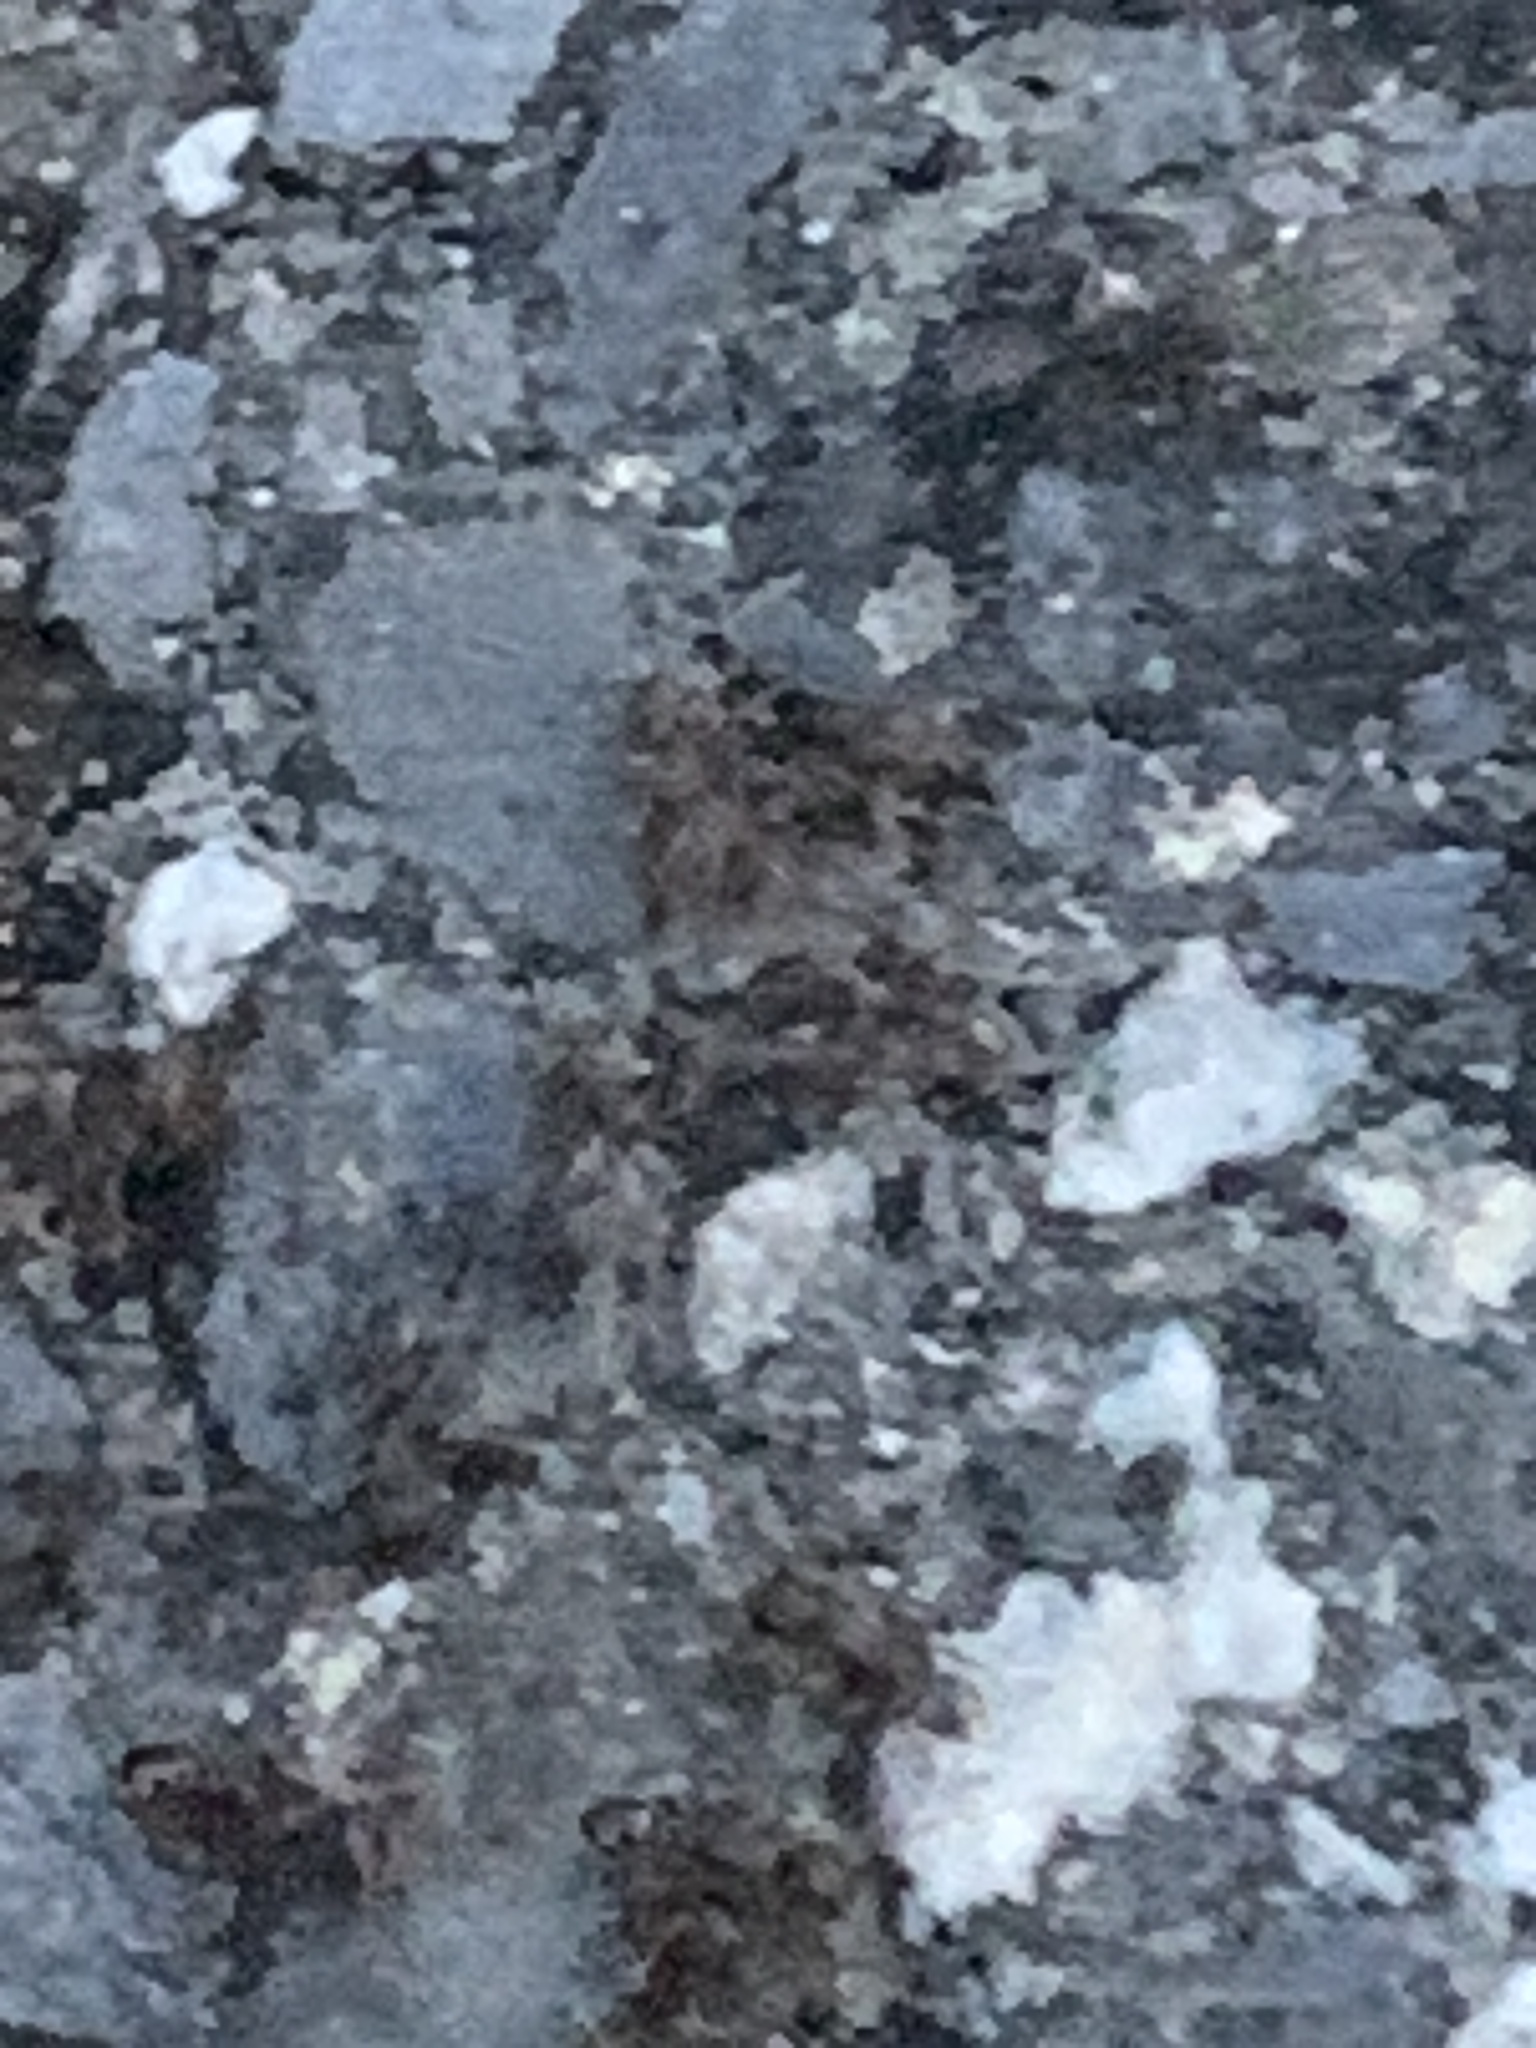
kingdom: Animalia
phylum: Arthropoda
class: Insecta
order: Hymenoptera
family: Formicidae
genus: Tetramorium
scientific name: Tetramorium immigrans
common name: Pavement ant
